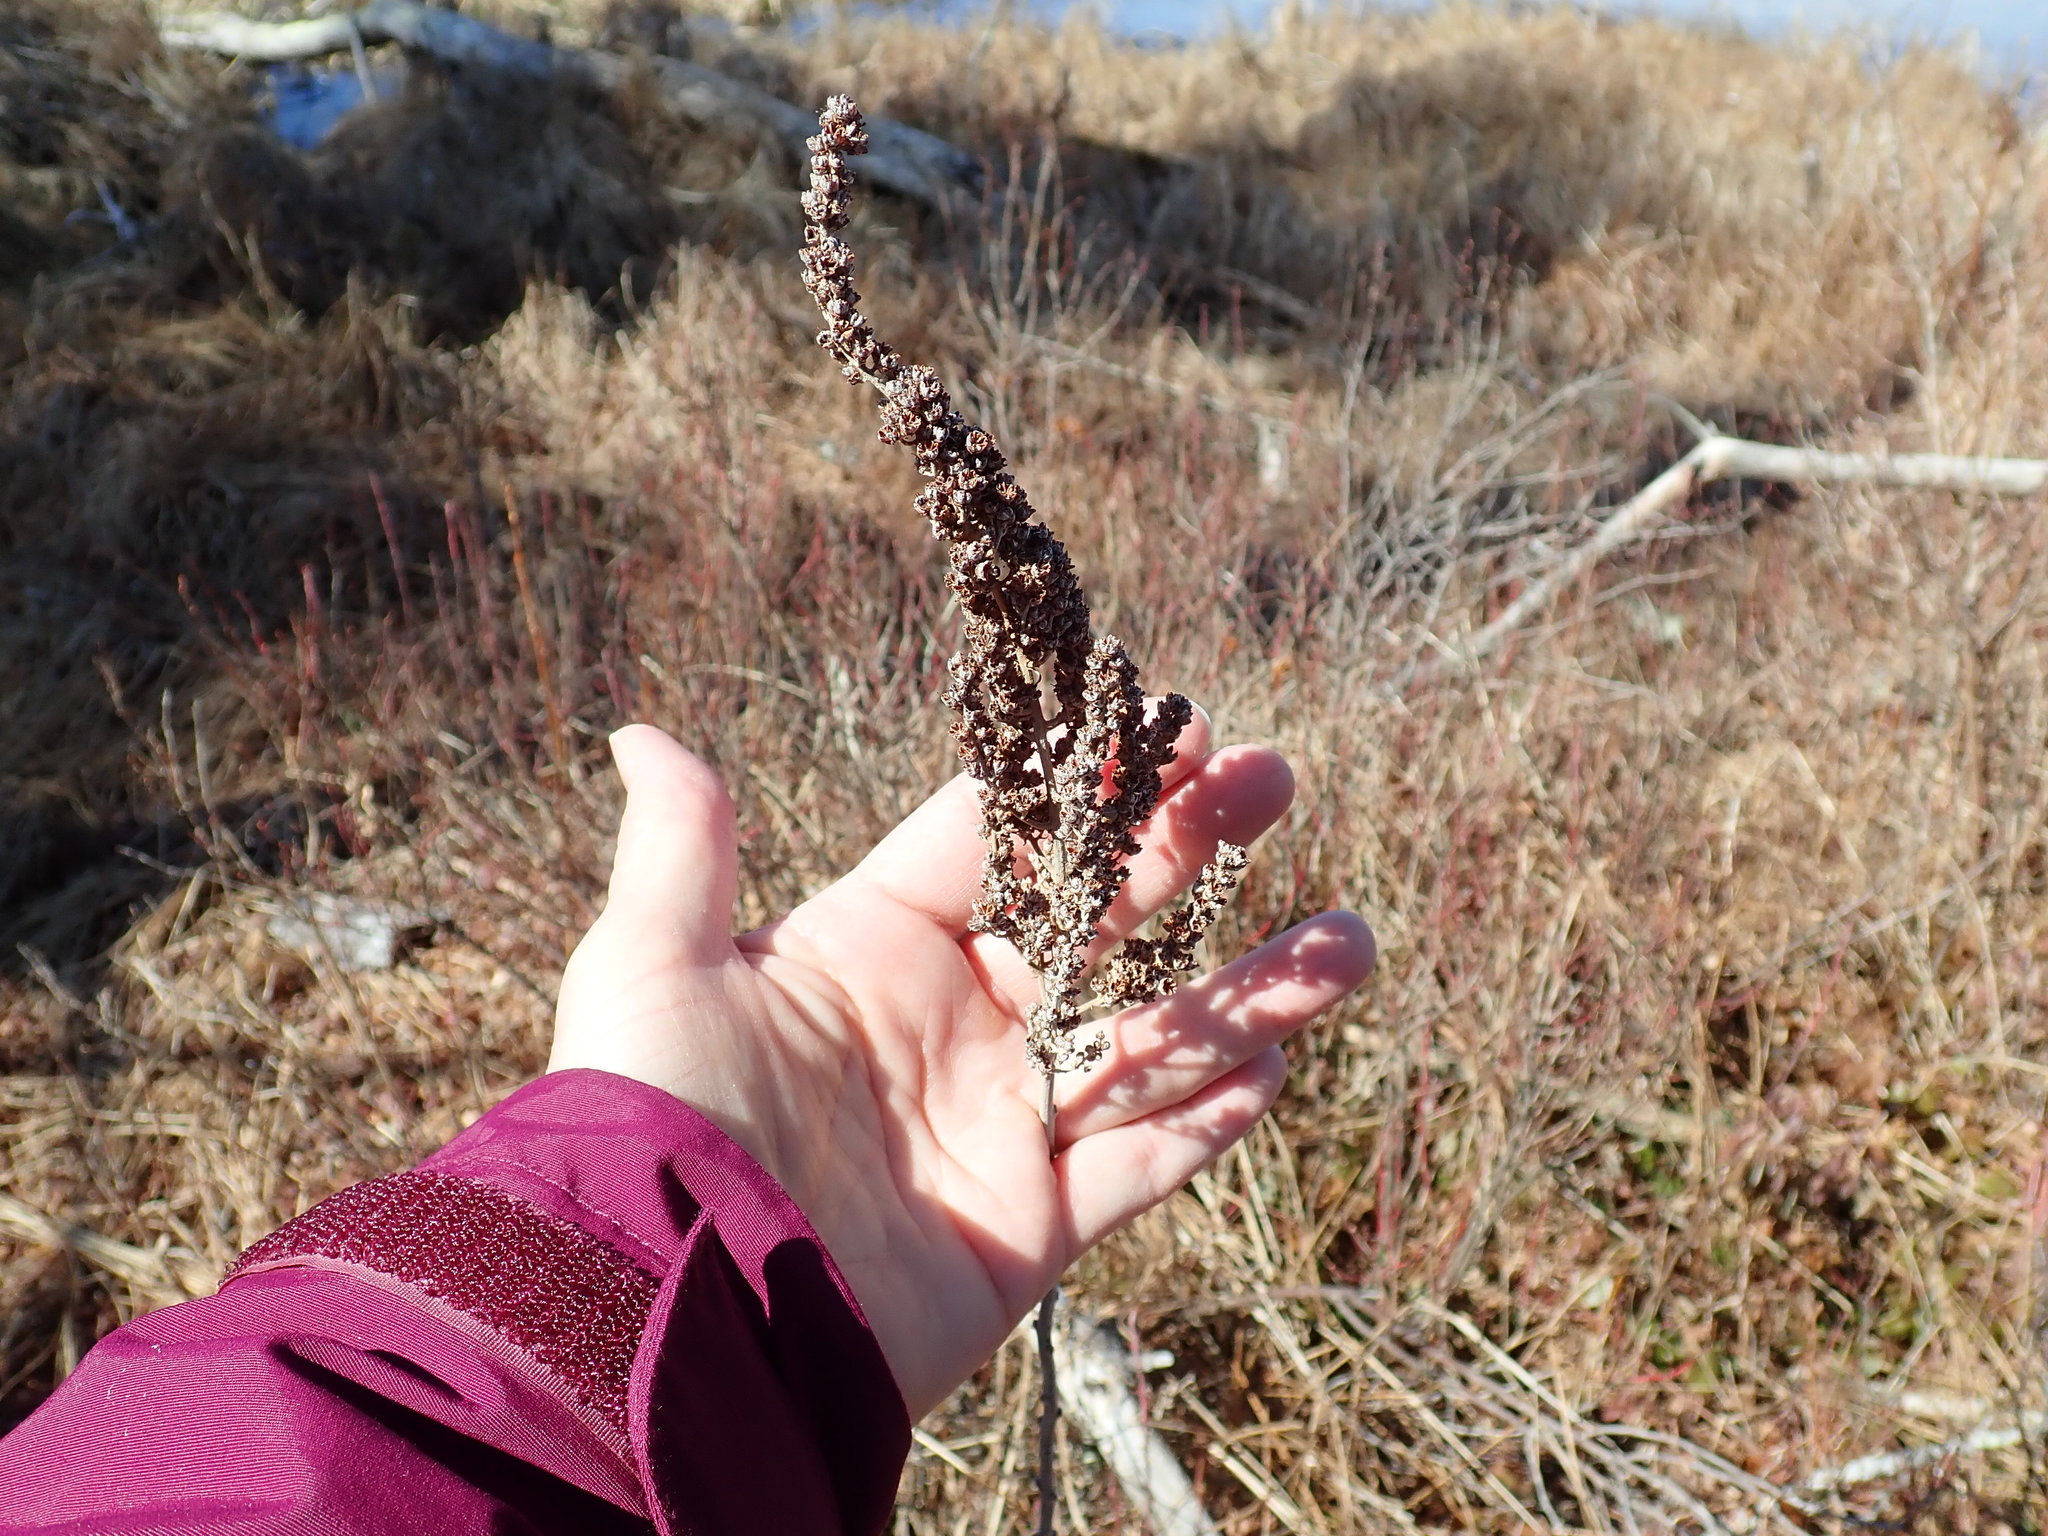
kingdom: Plantae
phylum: Tracheophyta
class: Magnoliopsida
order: Rosales
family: Rosaceae
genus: Spiraea
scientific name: Spiraea tomentosa
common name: Hardhack
